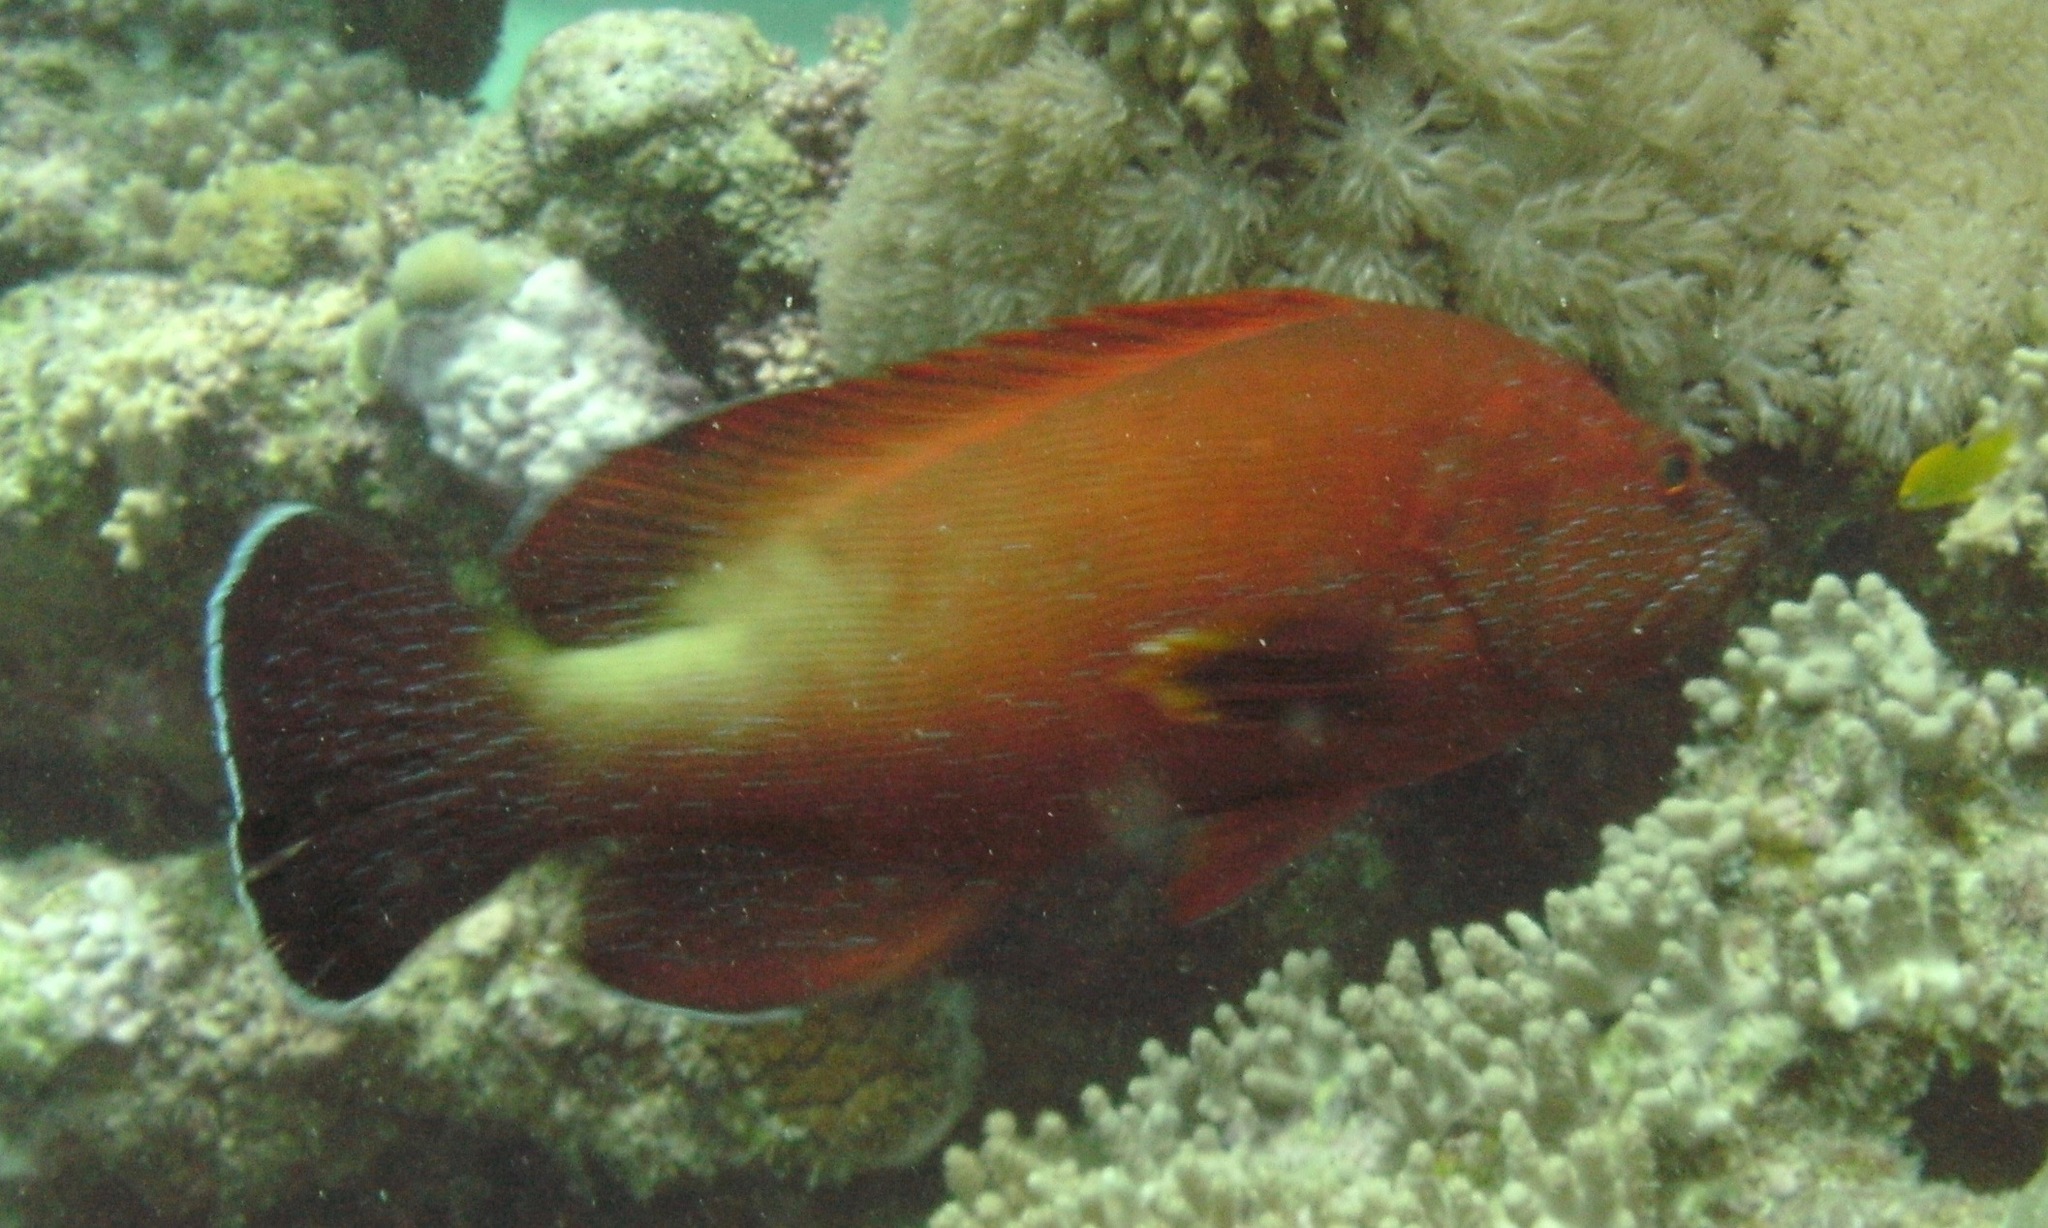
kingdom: Animalia
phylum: Chordata
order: Perciformes
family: Serranidae
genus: Cephalopholis
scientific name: Cephalopholis hemistiktos
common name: Halfspotted hind
